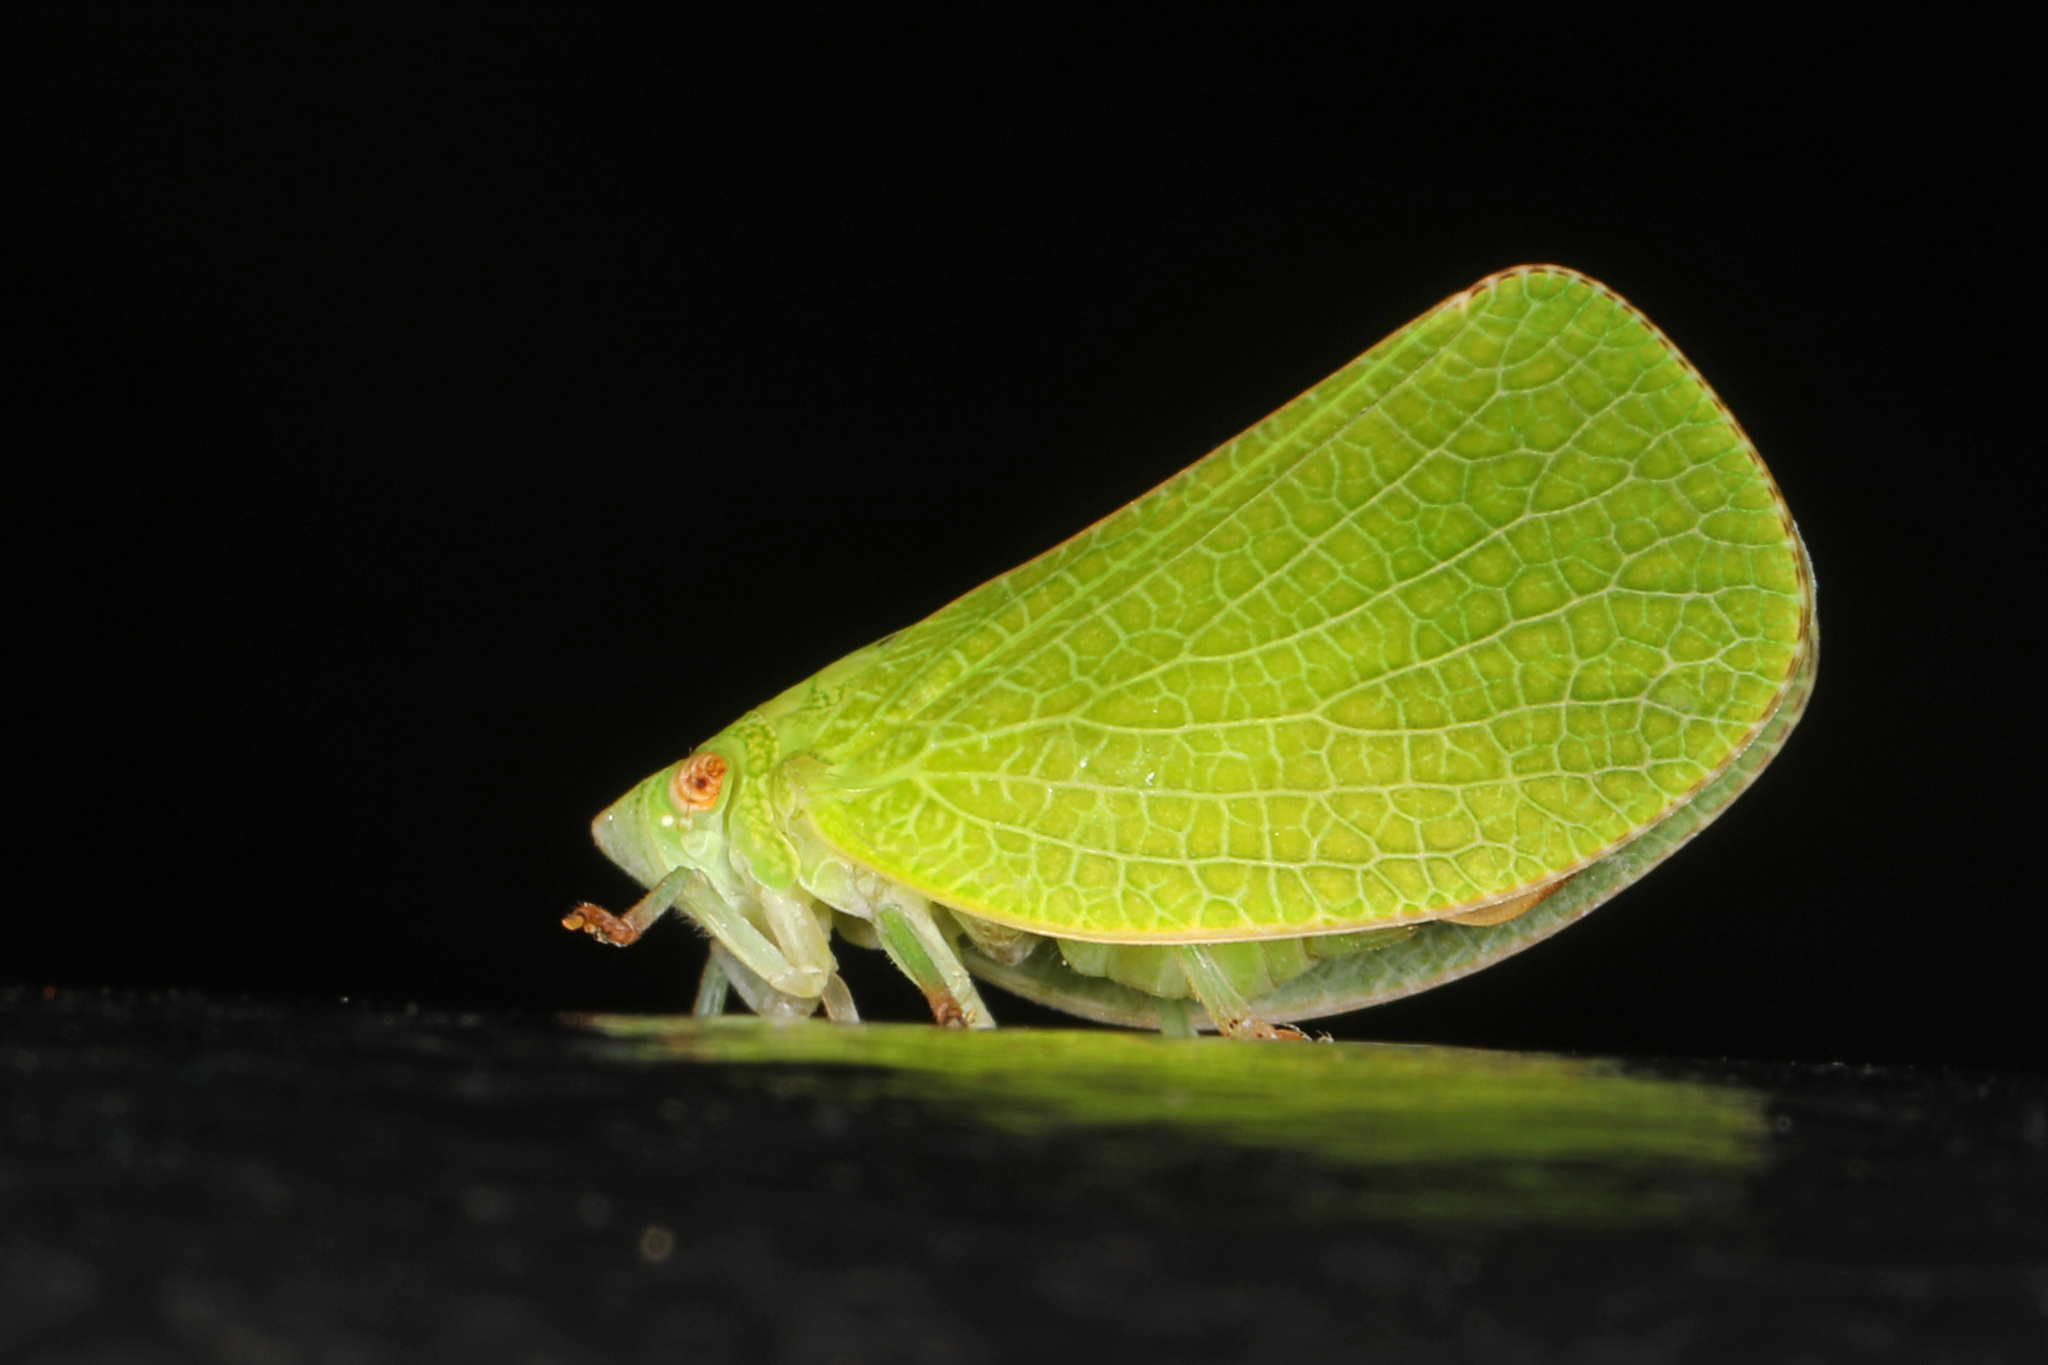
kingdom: Animalia
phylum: Arthropoda
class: Insecta
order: Hemiptera
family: Acanaloniidae
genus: Acanalonia
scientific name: Acanalonia conica
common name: Green cone-headed planthopper
